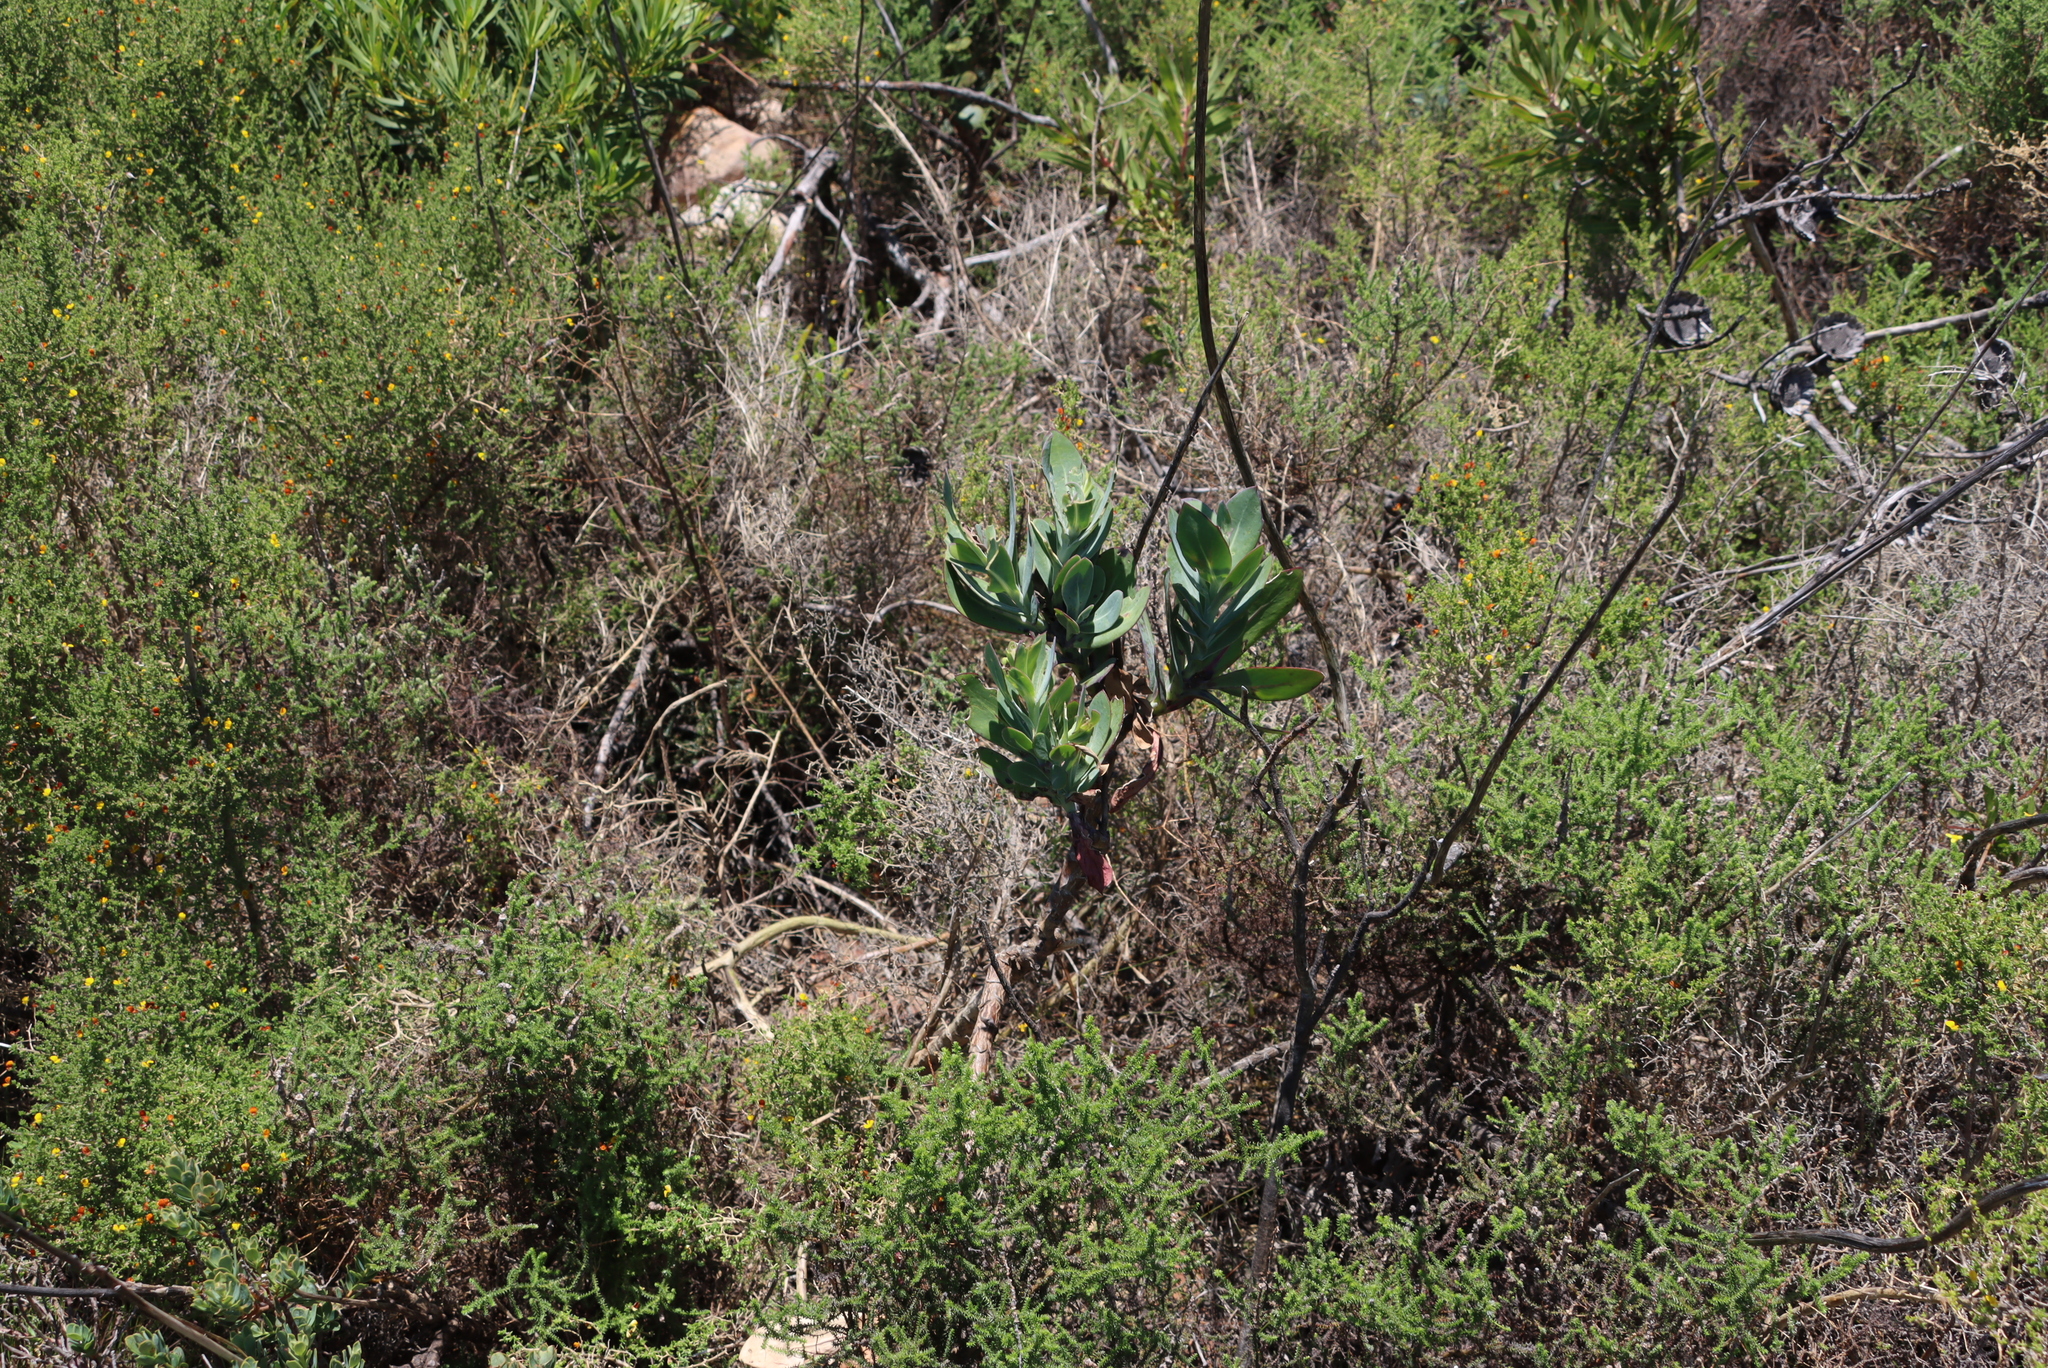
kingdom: Plantae
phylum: Tracheophyta
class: Magnoliopsida
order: Asterales
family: Asteraceae
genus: Othonna
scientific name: Othonna quinquedentata
